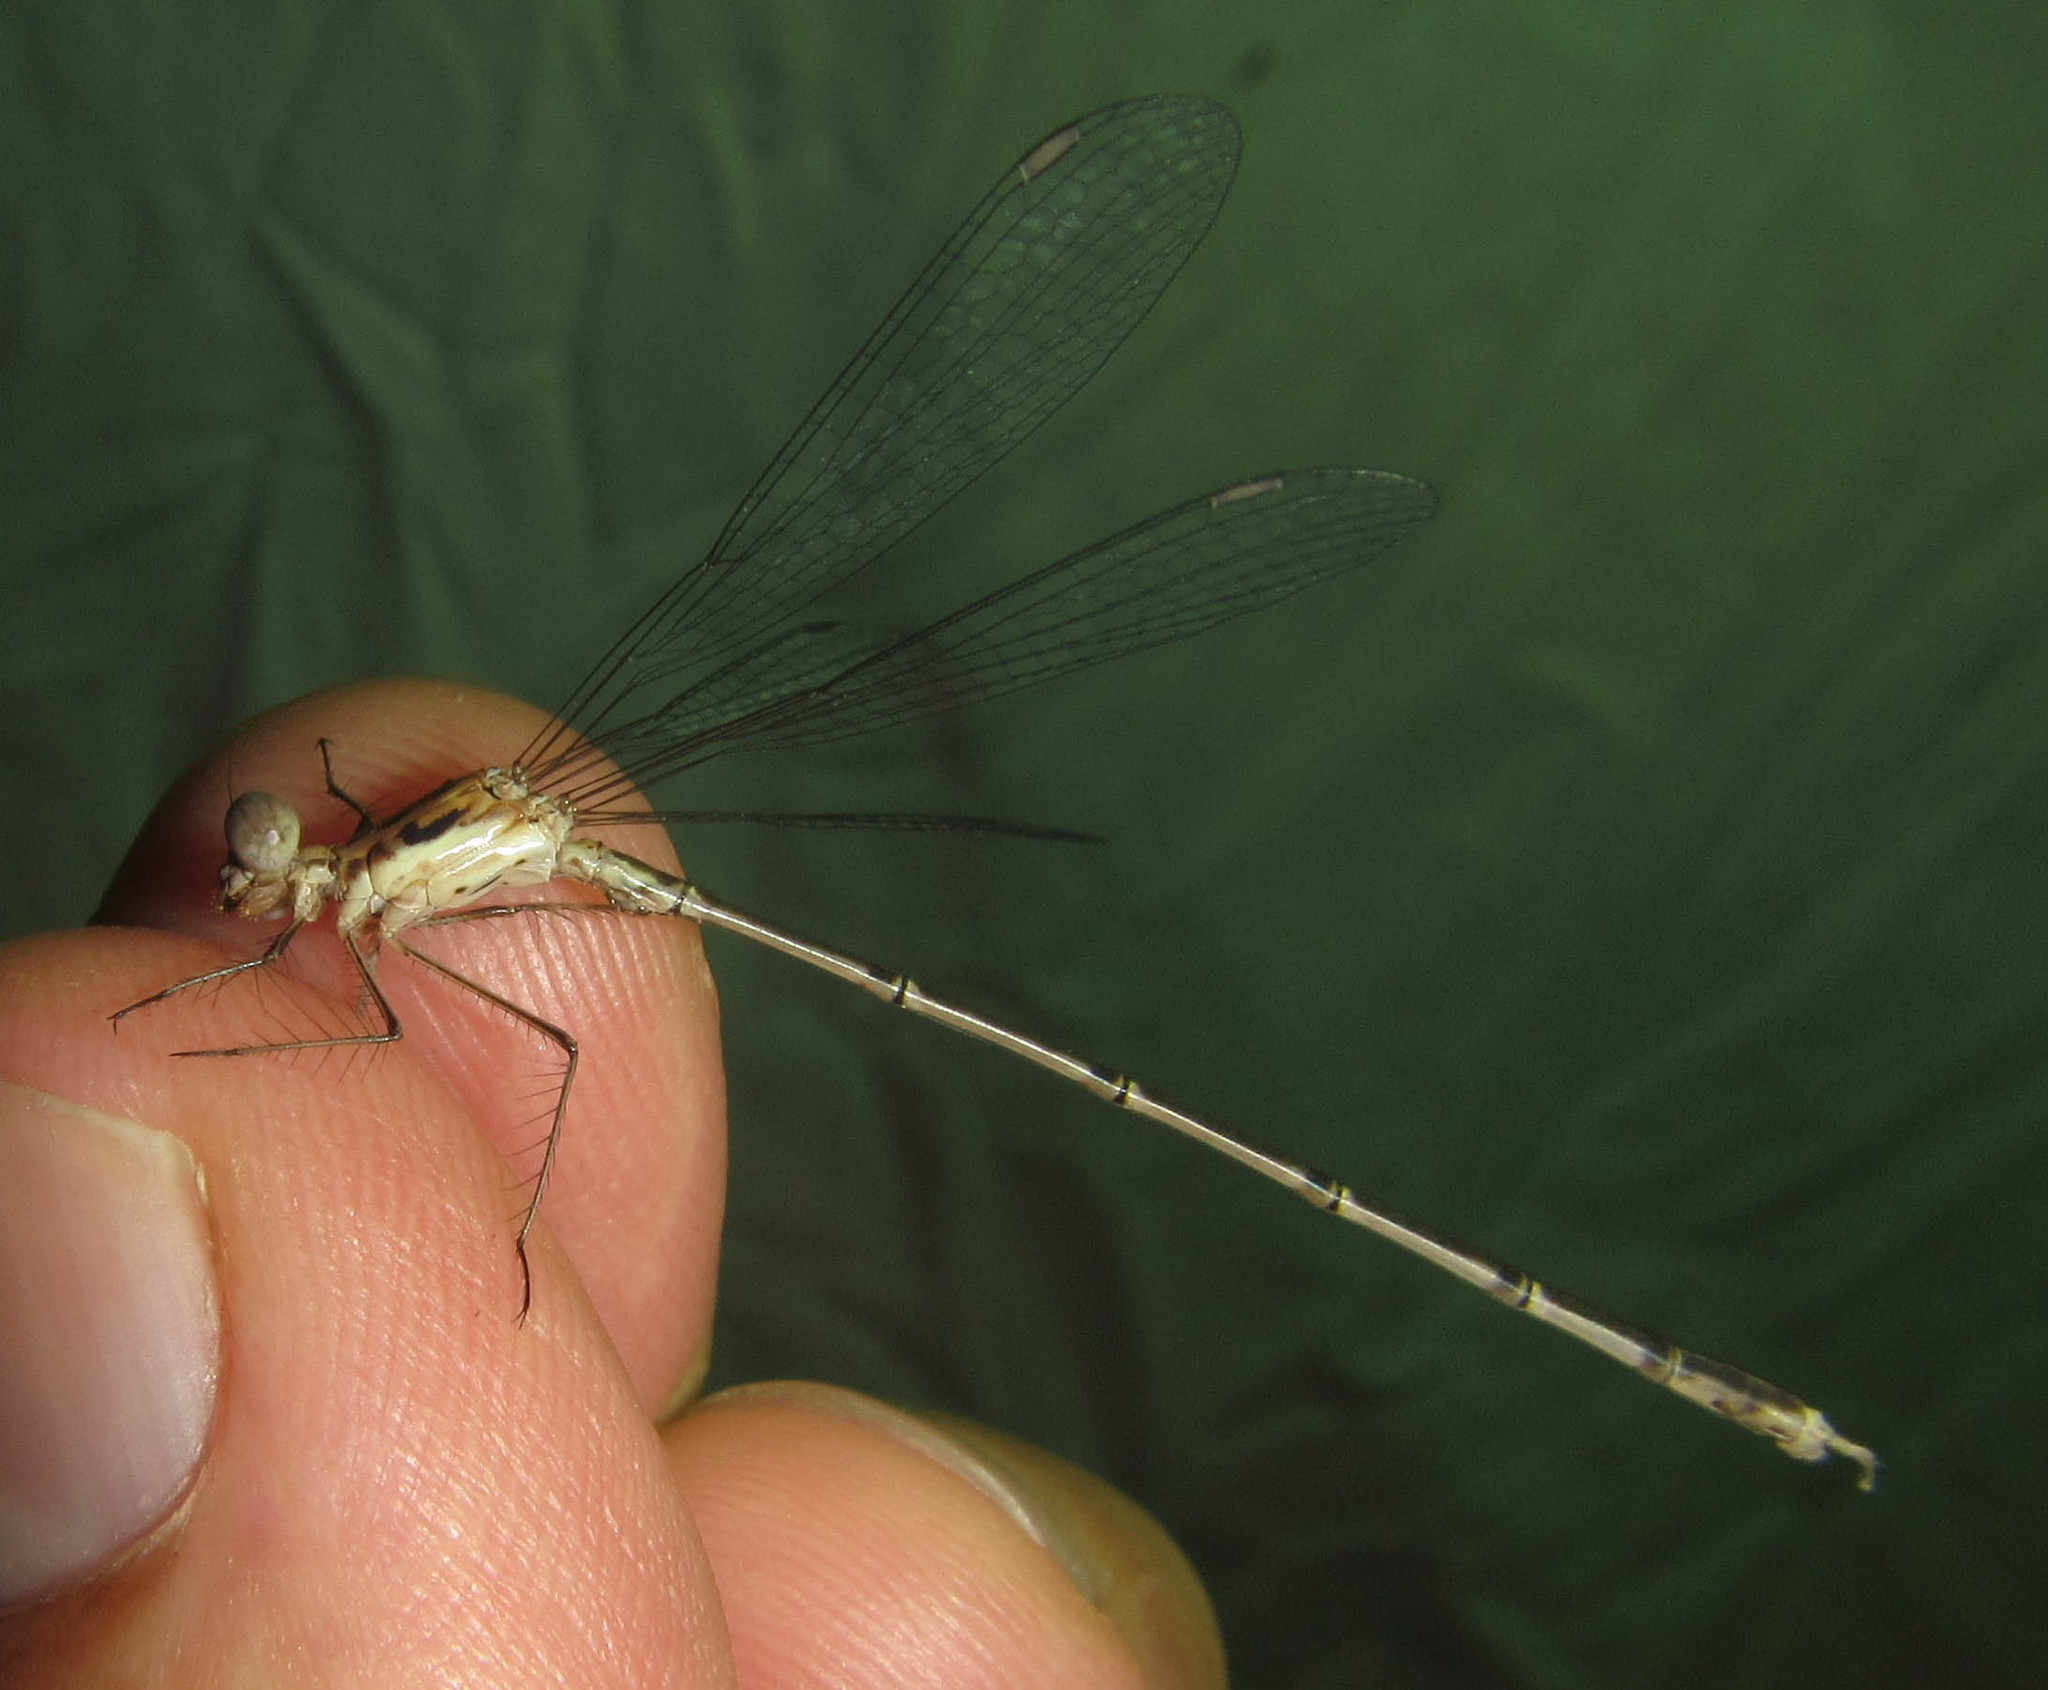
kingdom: Animalia
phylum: Arthropoda
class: Insecta
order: Odonata
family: Lestidae
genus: Lestes
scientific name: Lestes pinheyi
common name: Pinhey's spreadwing
